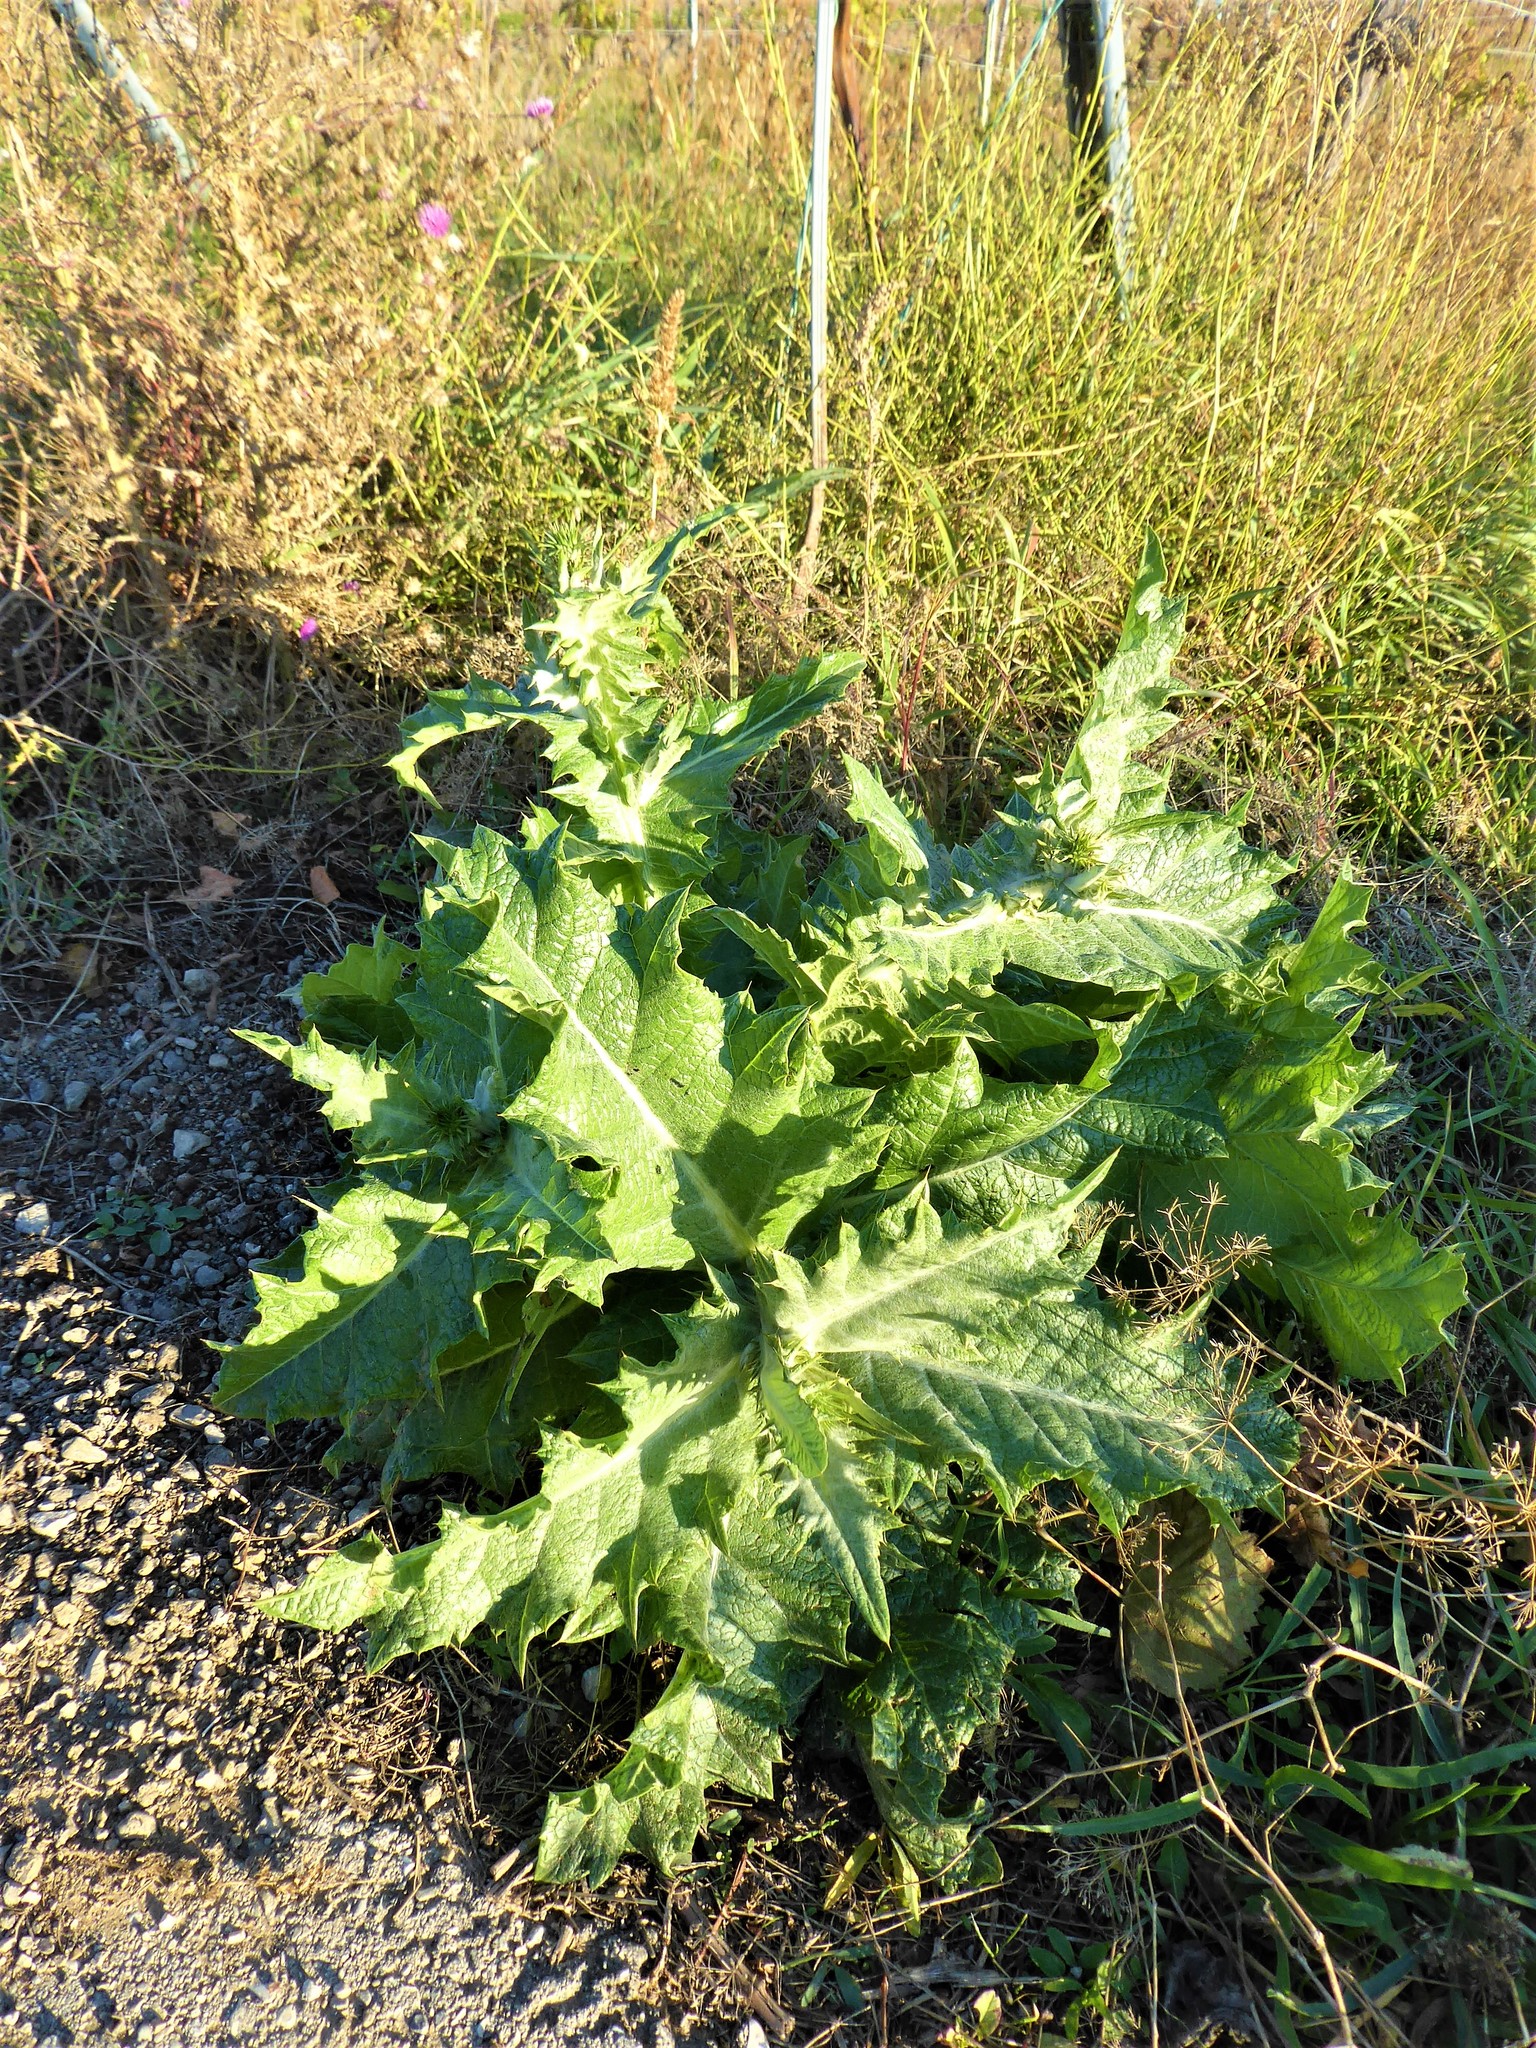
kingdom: Plantae
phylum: Tracheophyta
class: Magnoliopsida
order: Asterales
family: Asteraceae
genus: Onopordum
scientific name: Onopordum acanthium
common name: Scotch thistle
